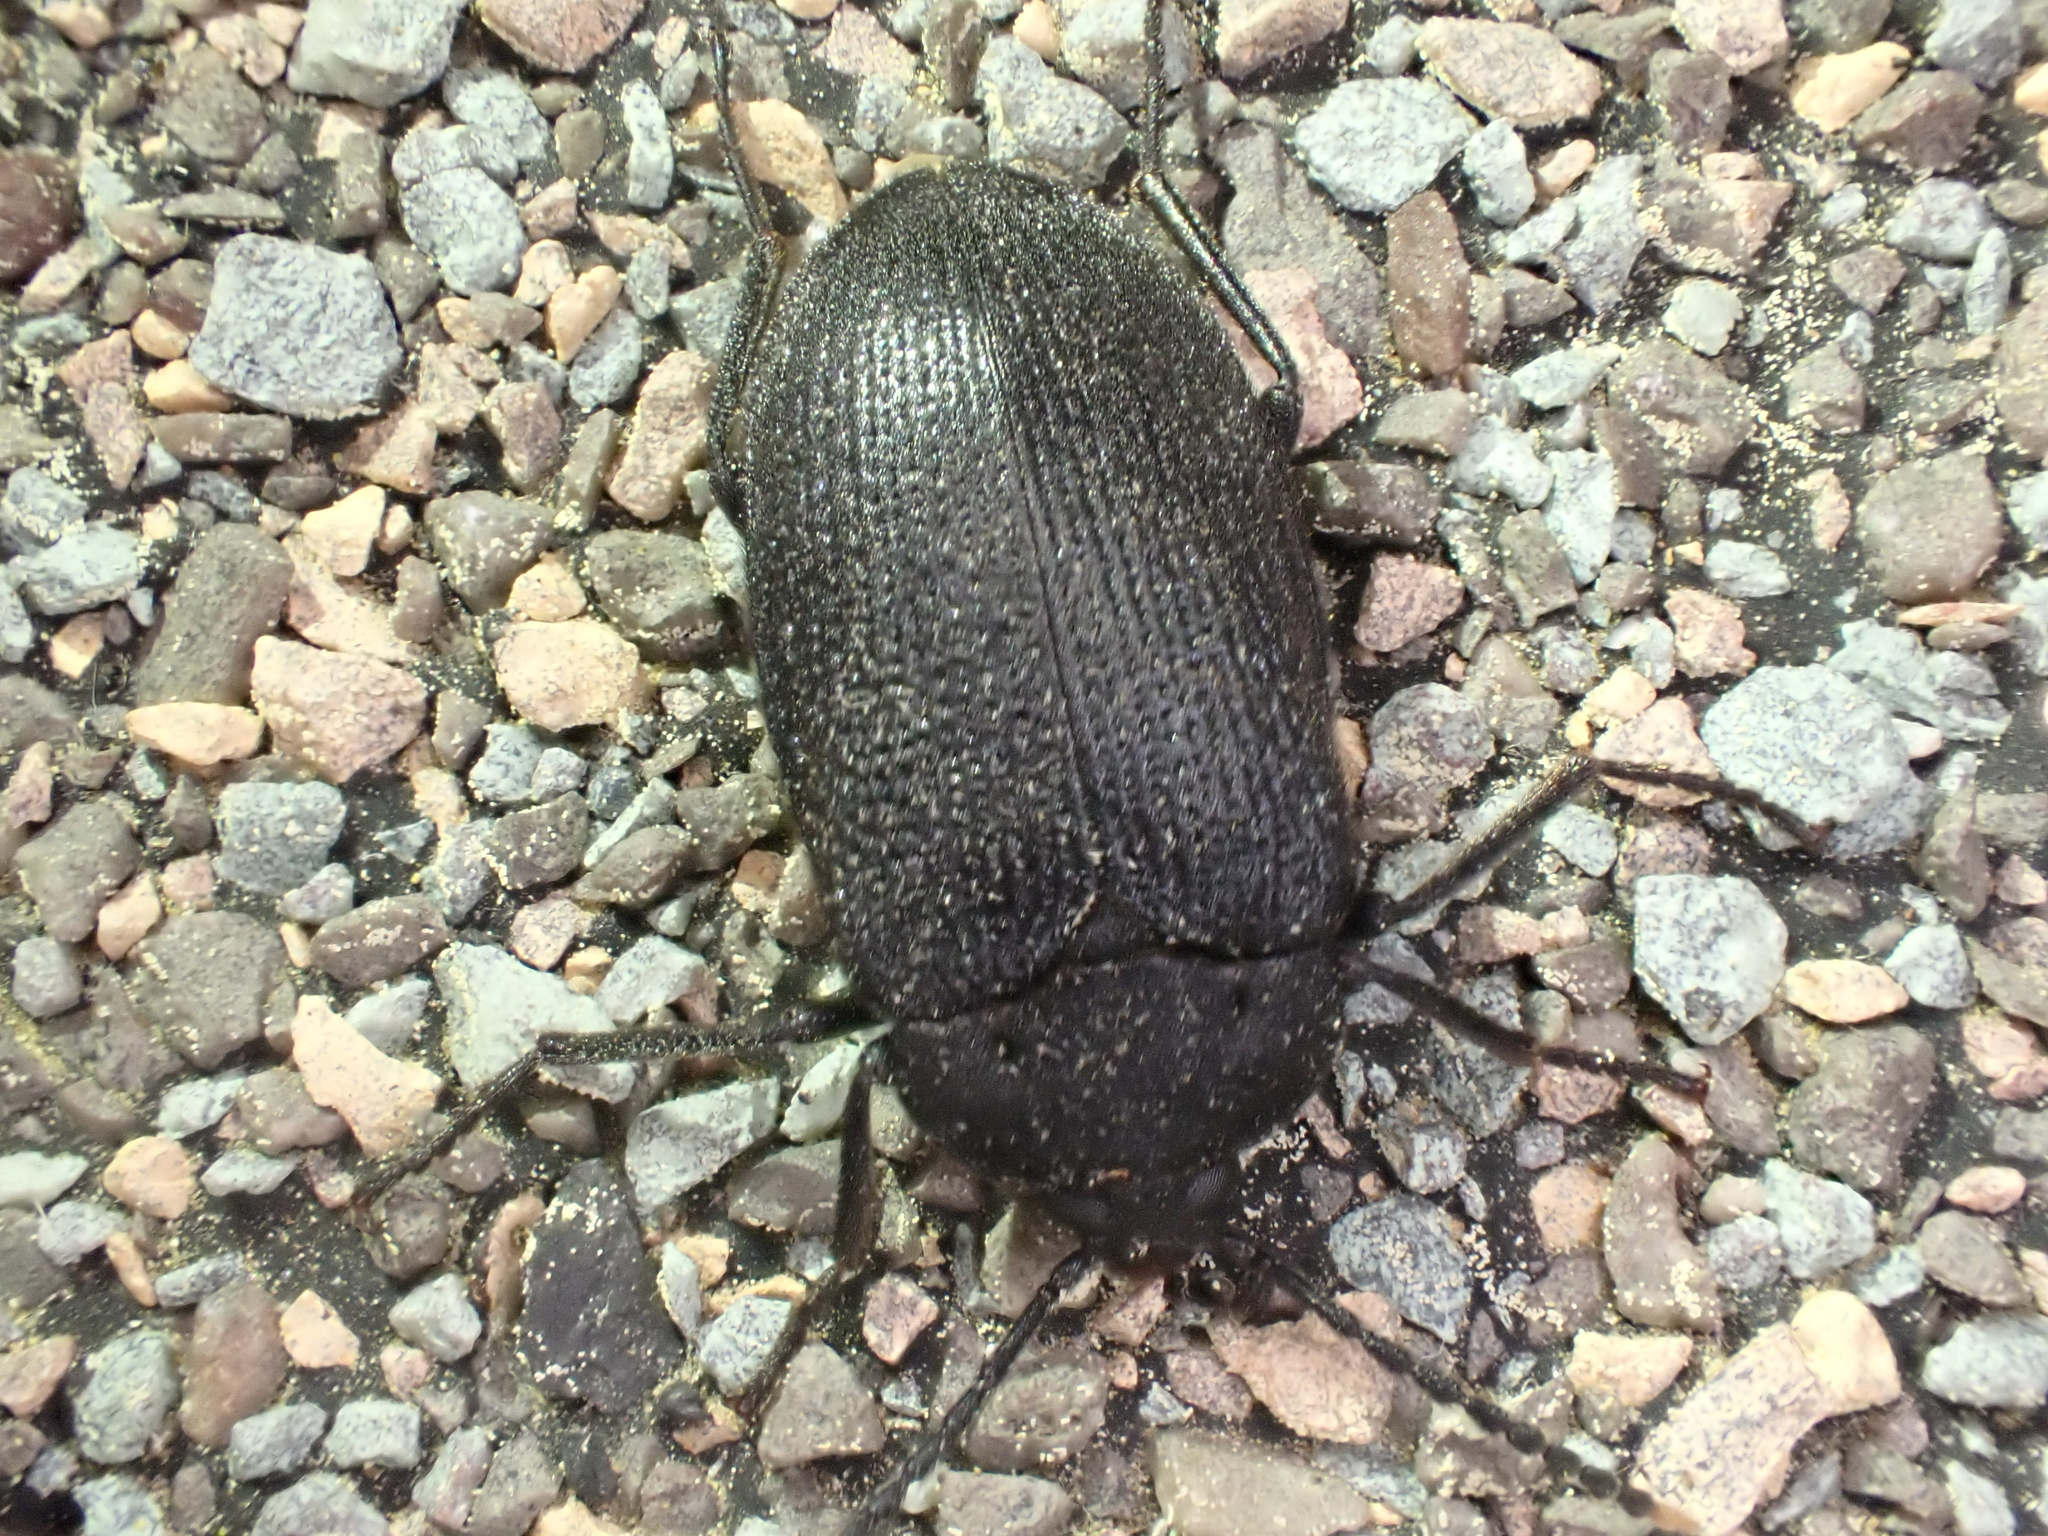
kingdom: Animalia
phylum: Arthropoda
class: Insecta
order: Coleoptera
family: Tetratomidae
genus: Penthe
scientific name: Penthe pimelia
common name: Velvety bark beetle
